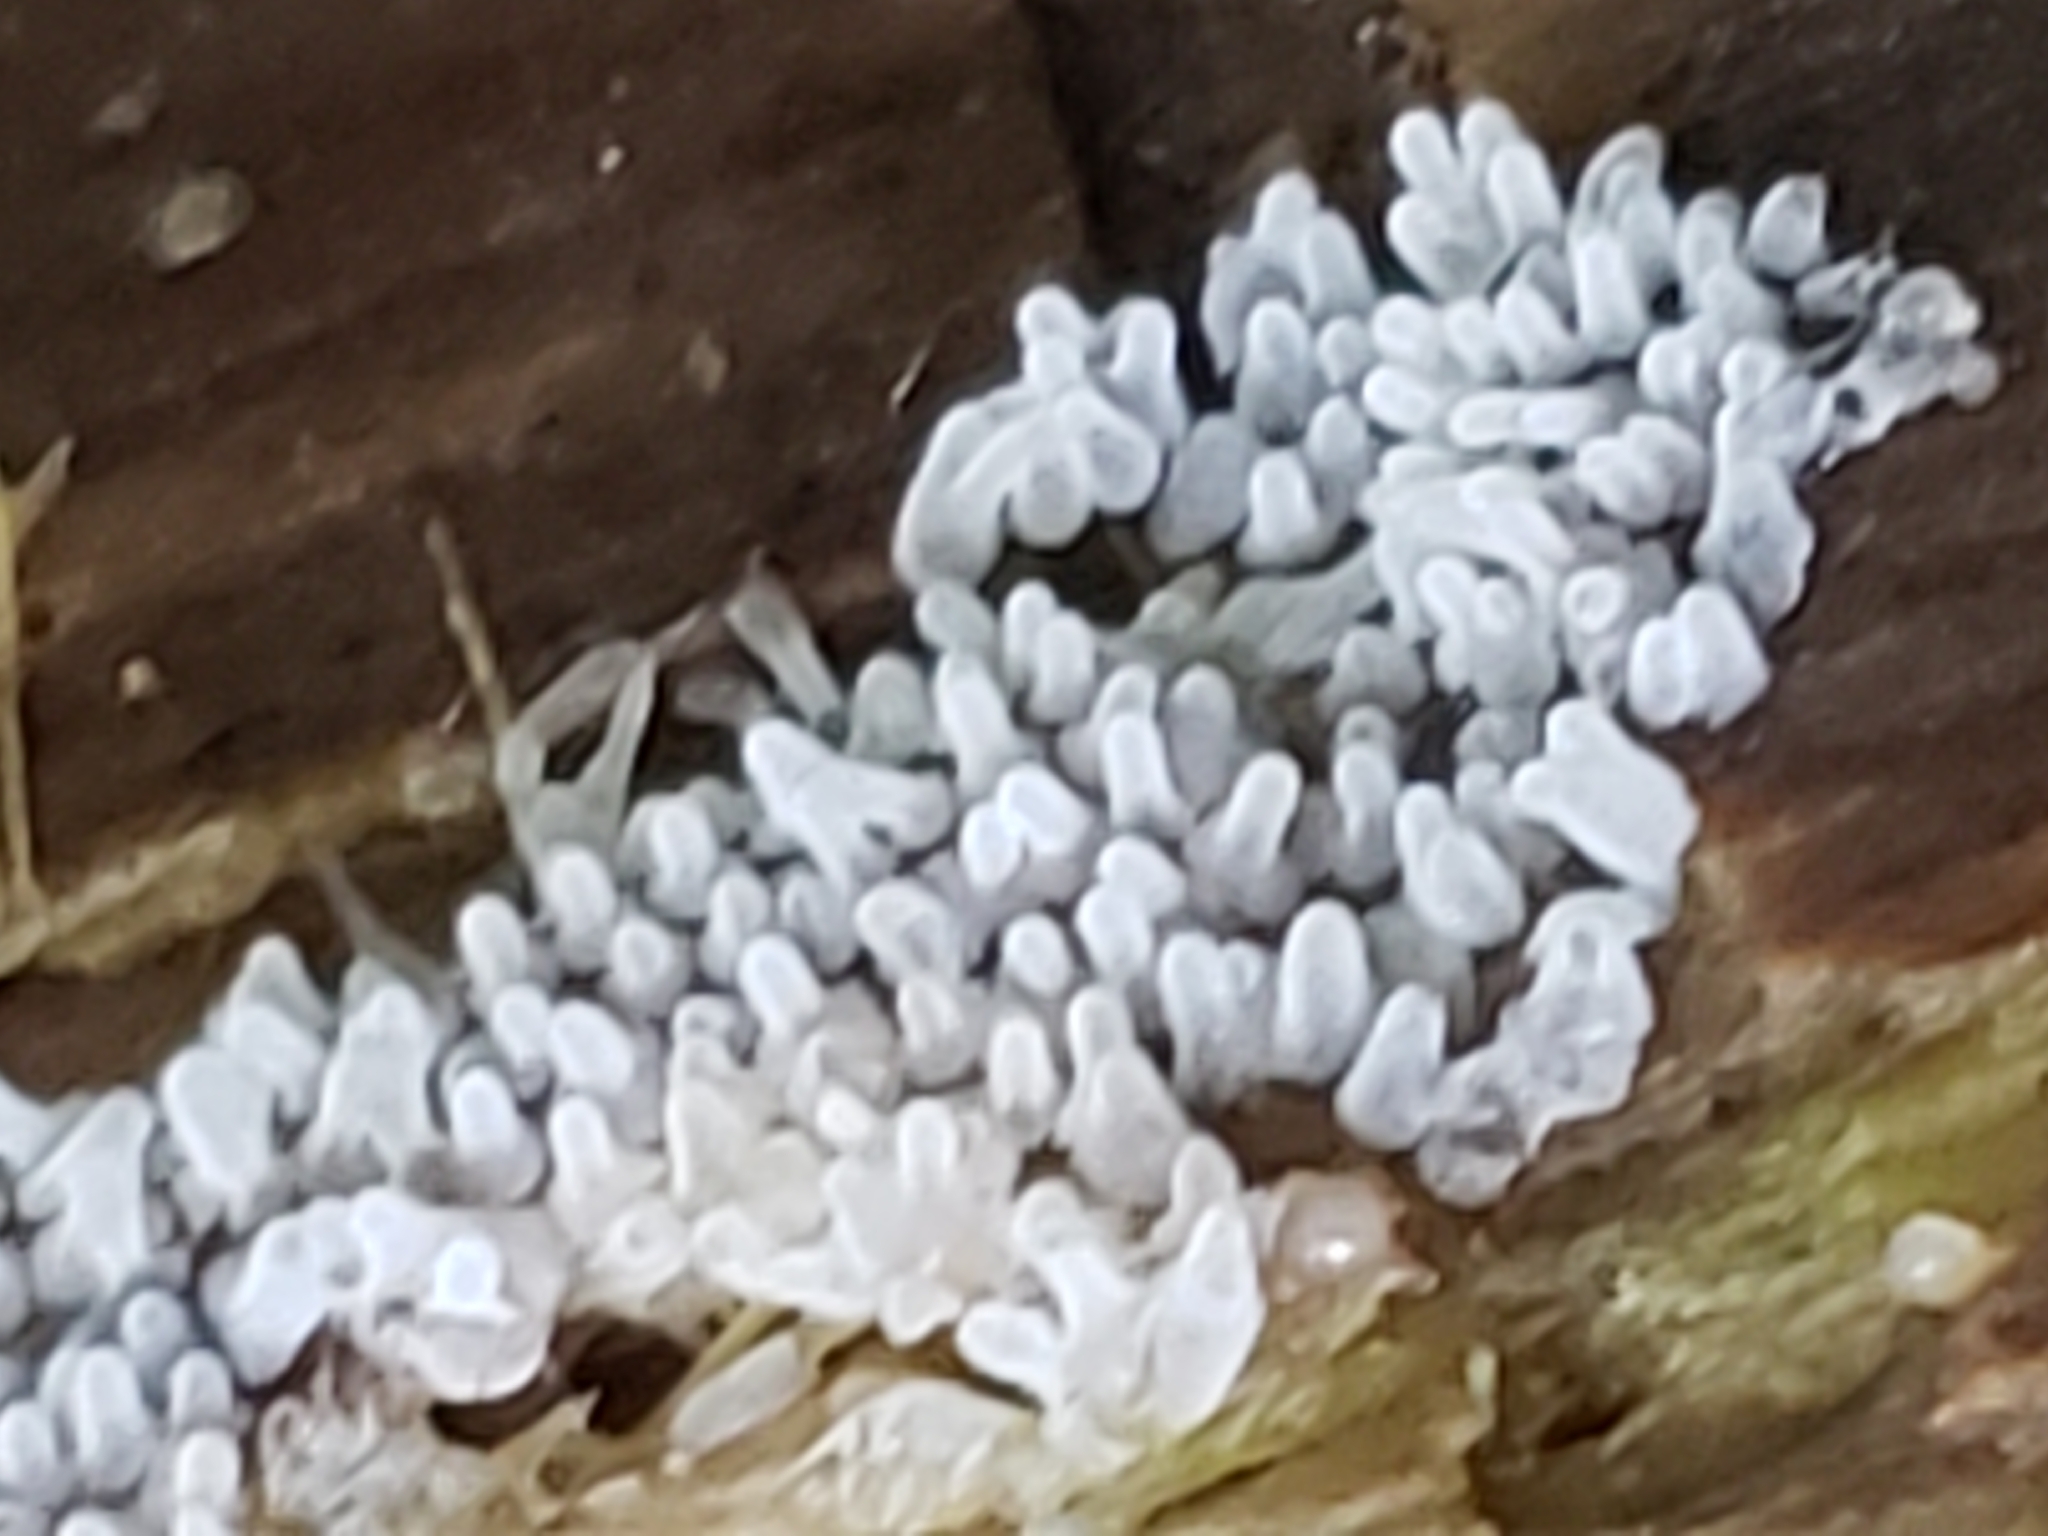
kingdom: Protozoa
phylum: Mycetozoa
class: Protosteliomycetes
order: Ceratiomyxales
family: Ceratiomyxaceae
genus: Ceratiomyxa
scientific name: Ceratiomyxa fruticulosa
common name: Honeycomb coral slime mold
